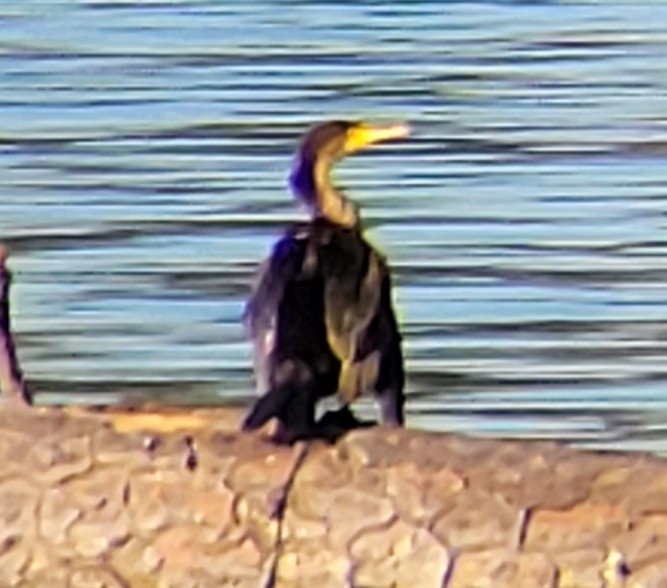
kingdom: Animalia
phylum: Chordata
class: Aves
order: Suliformes
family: Phalacrocoracidae
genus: Phalacrocorax
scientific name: Phalacrocorax auritus
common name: Double-crested cormorant
